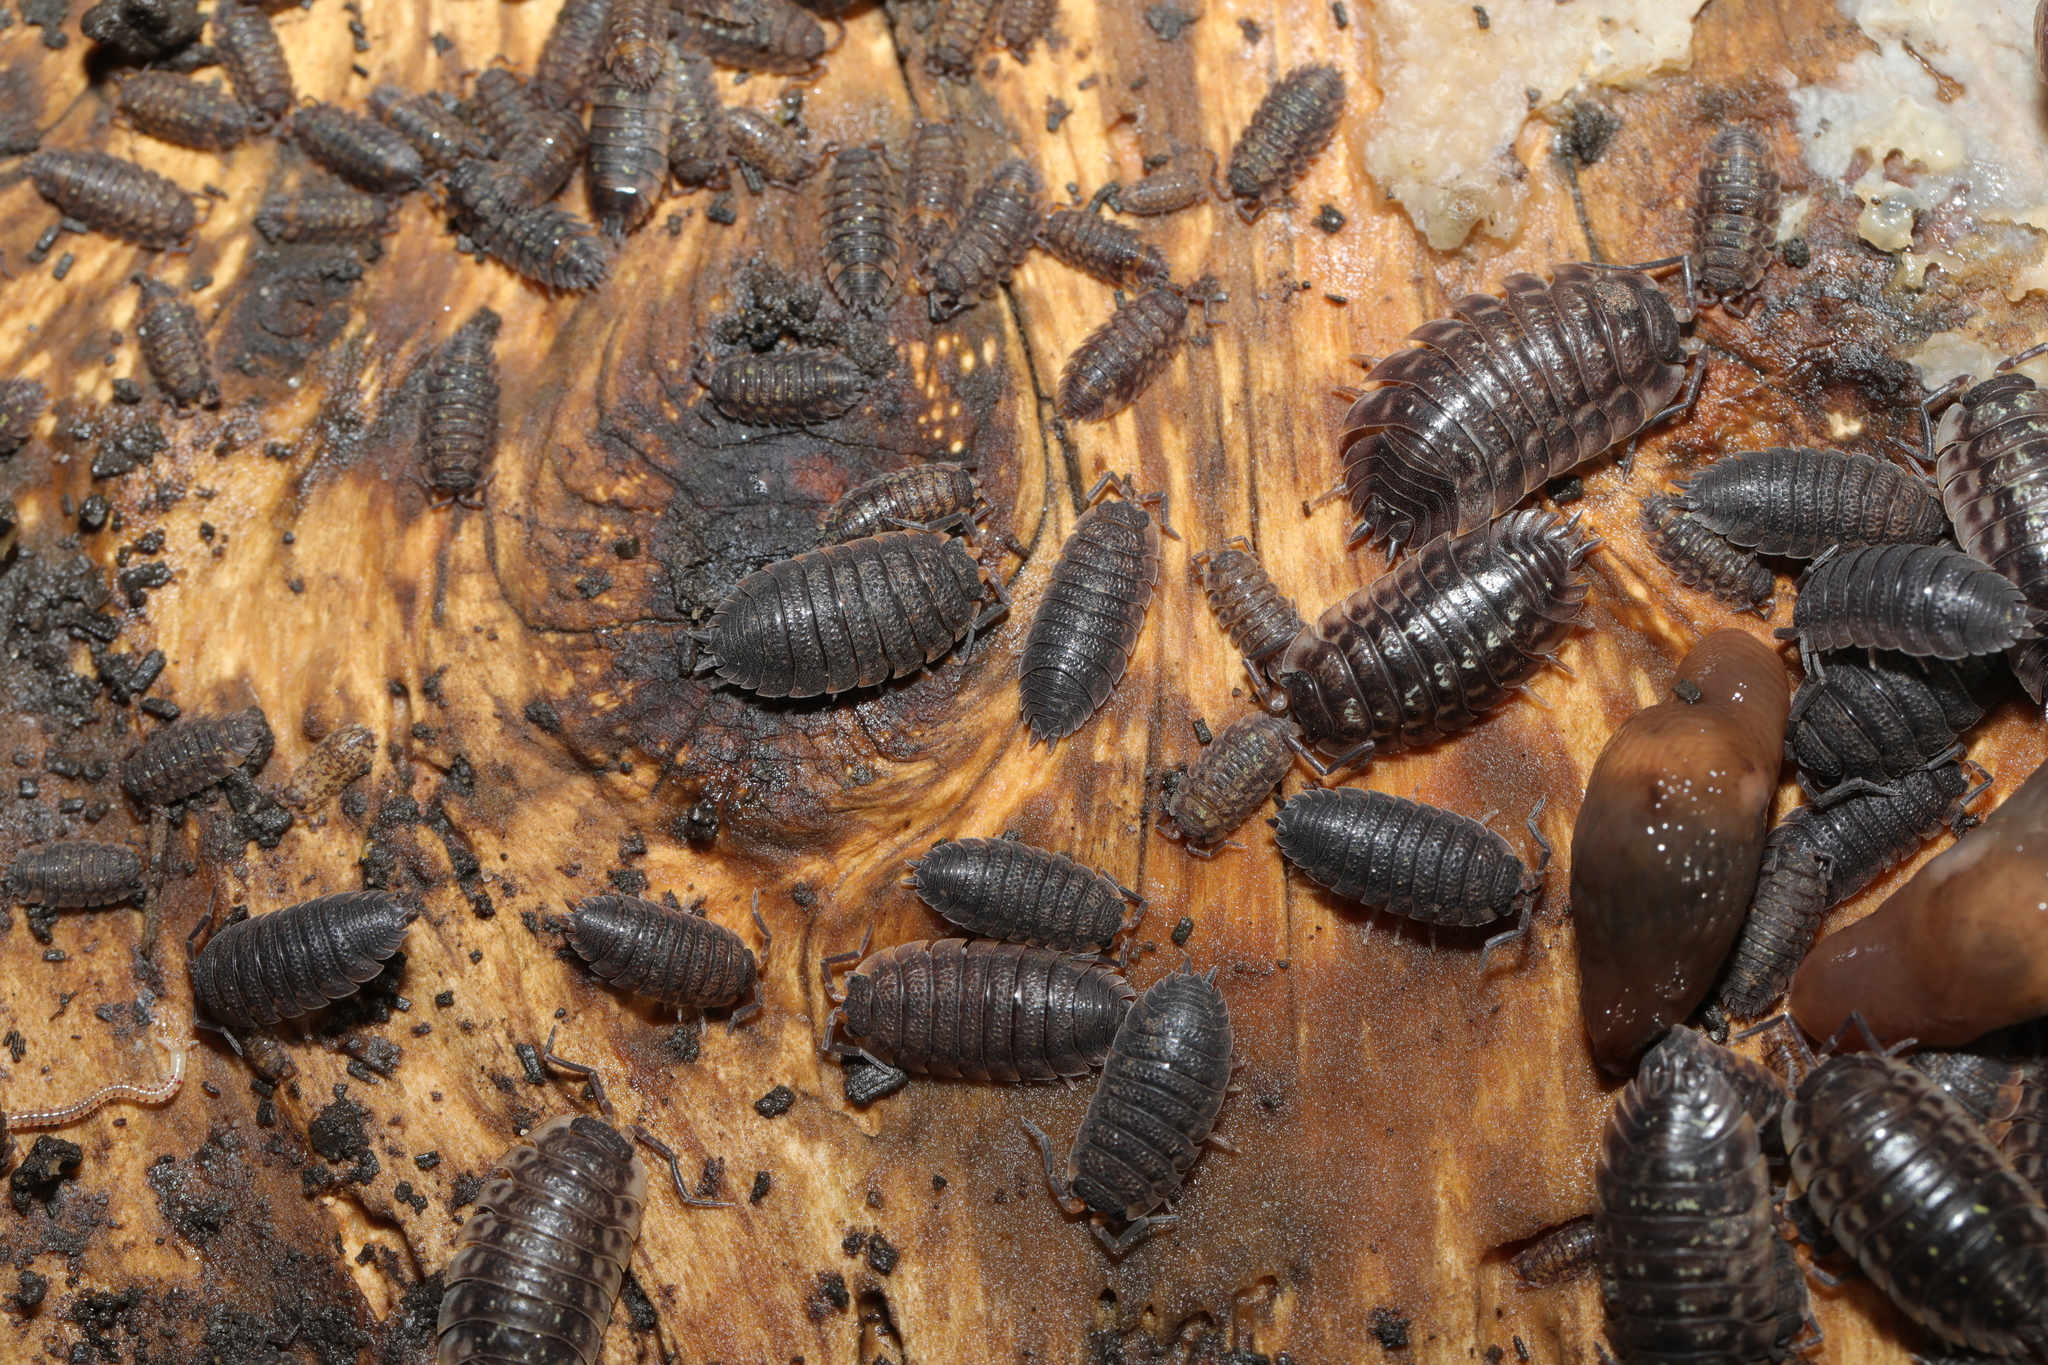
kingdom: Animalia
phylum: Arthropoda
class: Malacostraca
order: Isopoda
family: Porcellionidae
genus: Porcellio
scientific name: Porcellio scaber
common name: Common rough woodlouse
